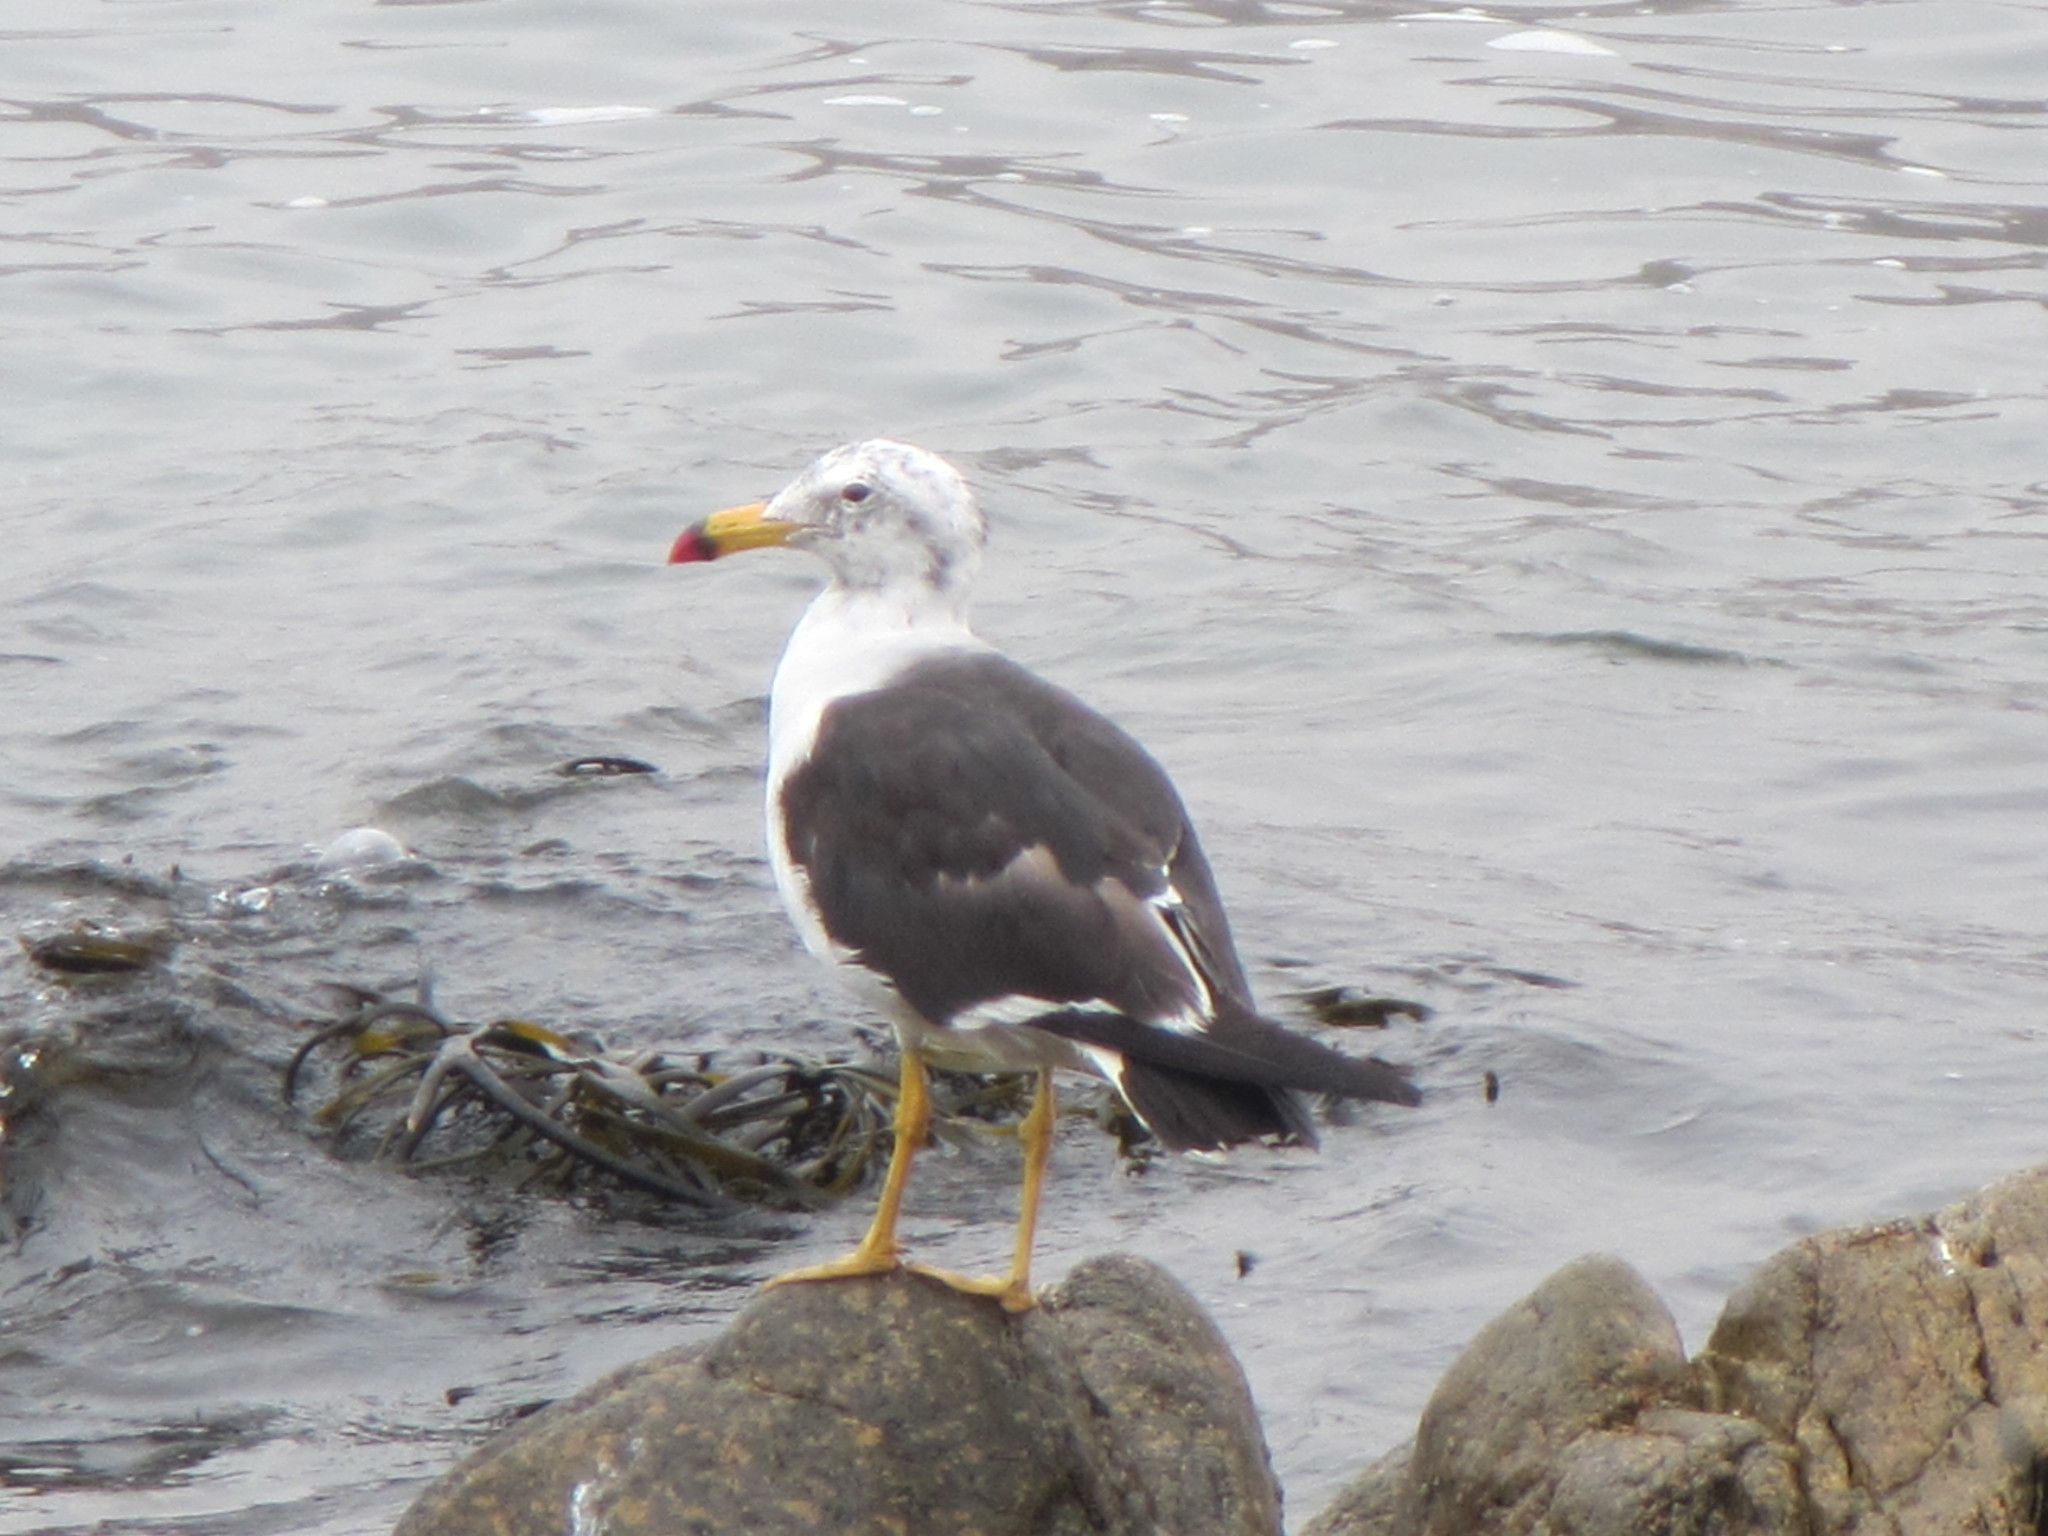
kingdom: Animalia
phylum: Chordata
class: Aves
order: Charadriiformes
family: Laridae
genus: Larus
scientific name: Larus belcheri
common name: Belcher's gull
